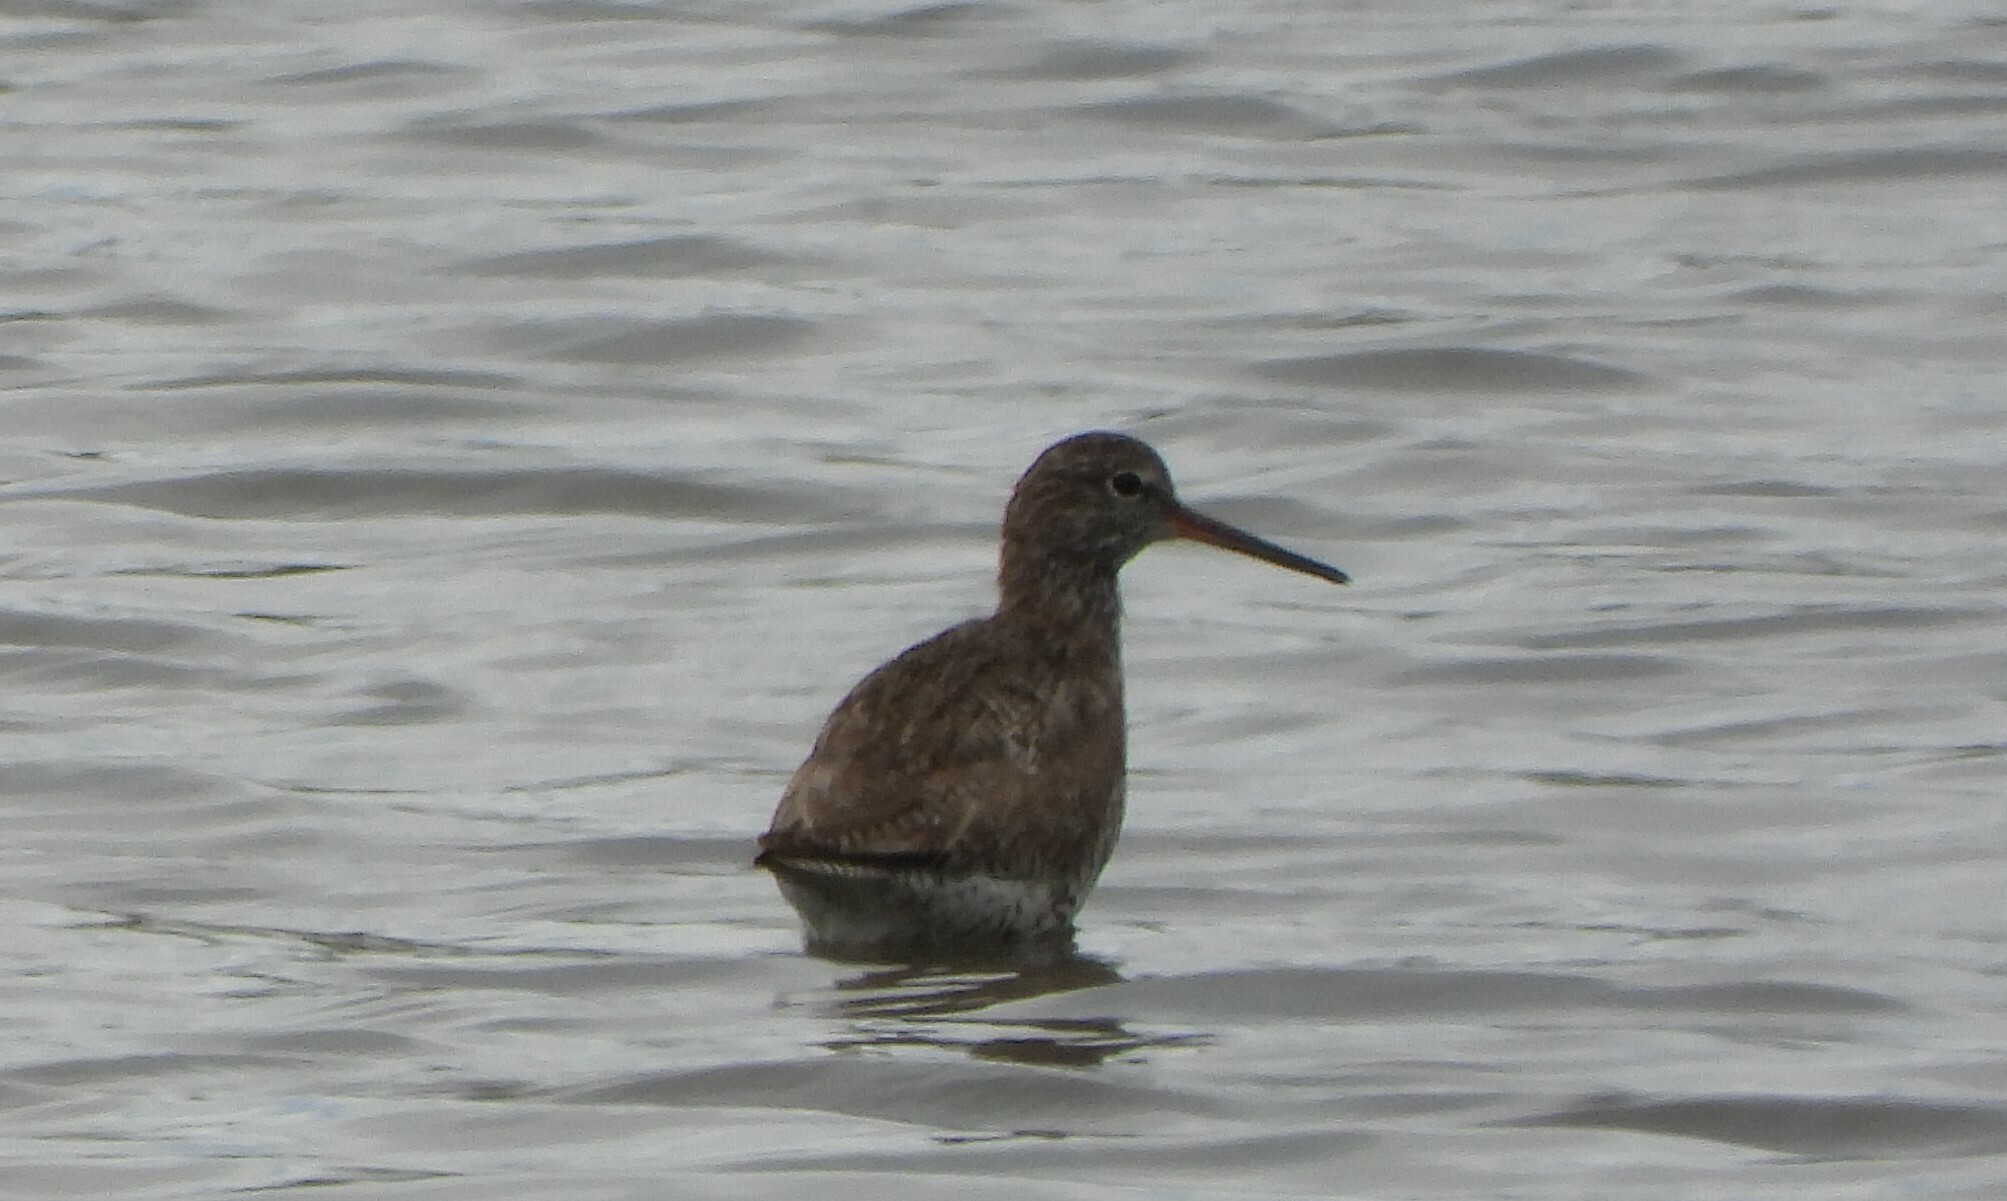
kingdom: Animalia
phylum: Chordata
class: Aves
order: Charadriiformes
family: Scolopacidae
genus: Tringa
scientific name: Tringa totanus
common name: Common redshank
